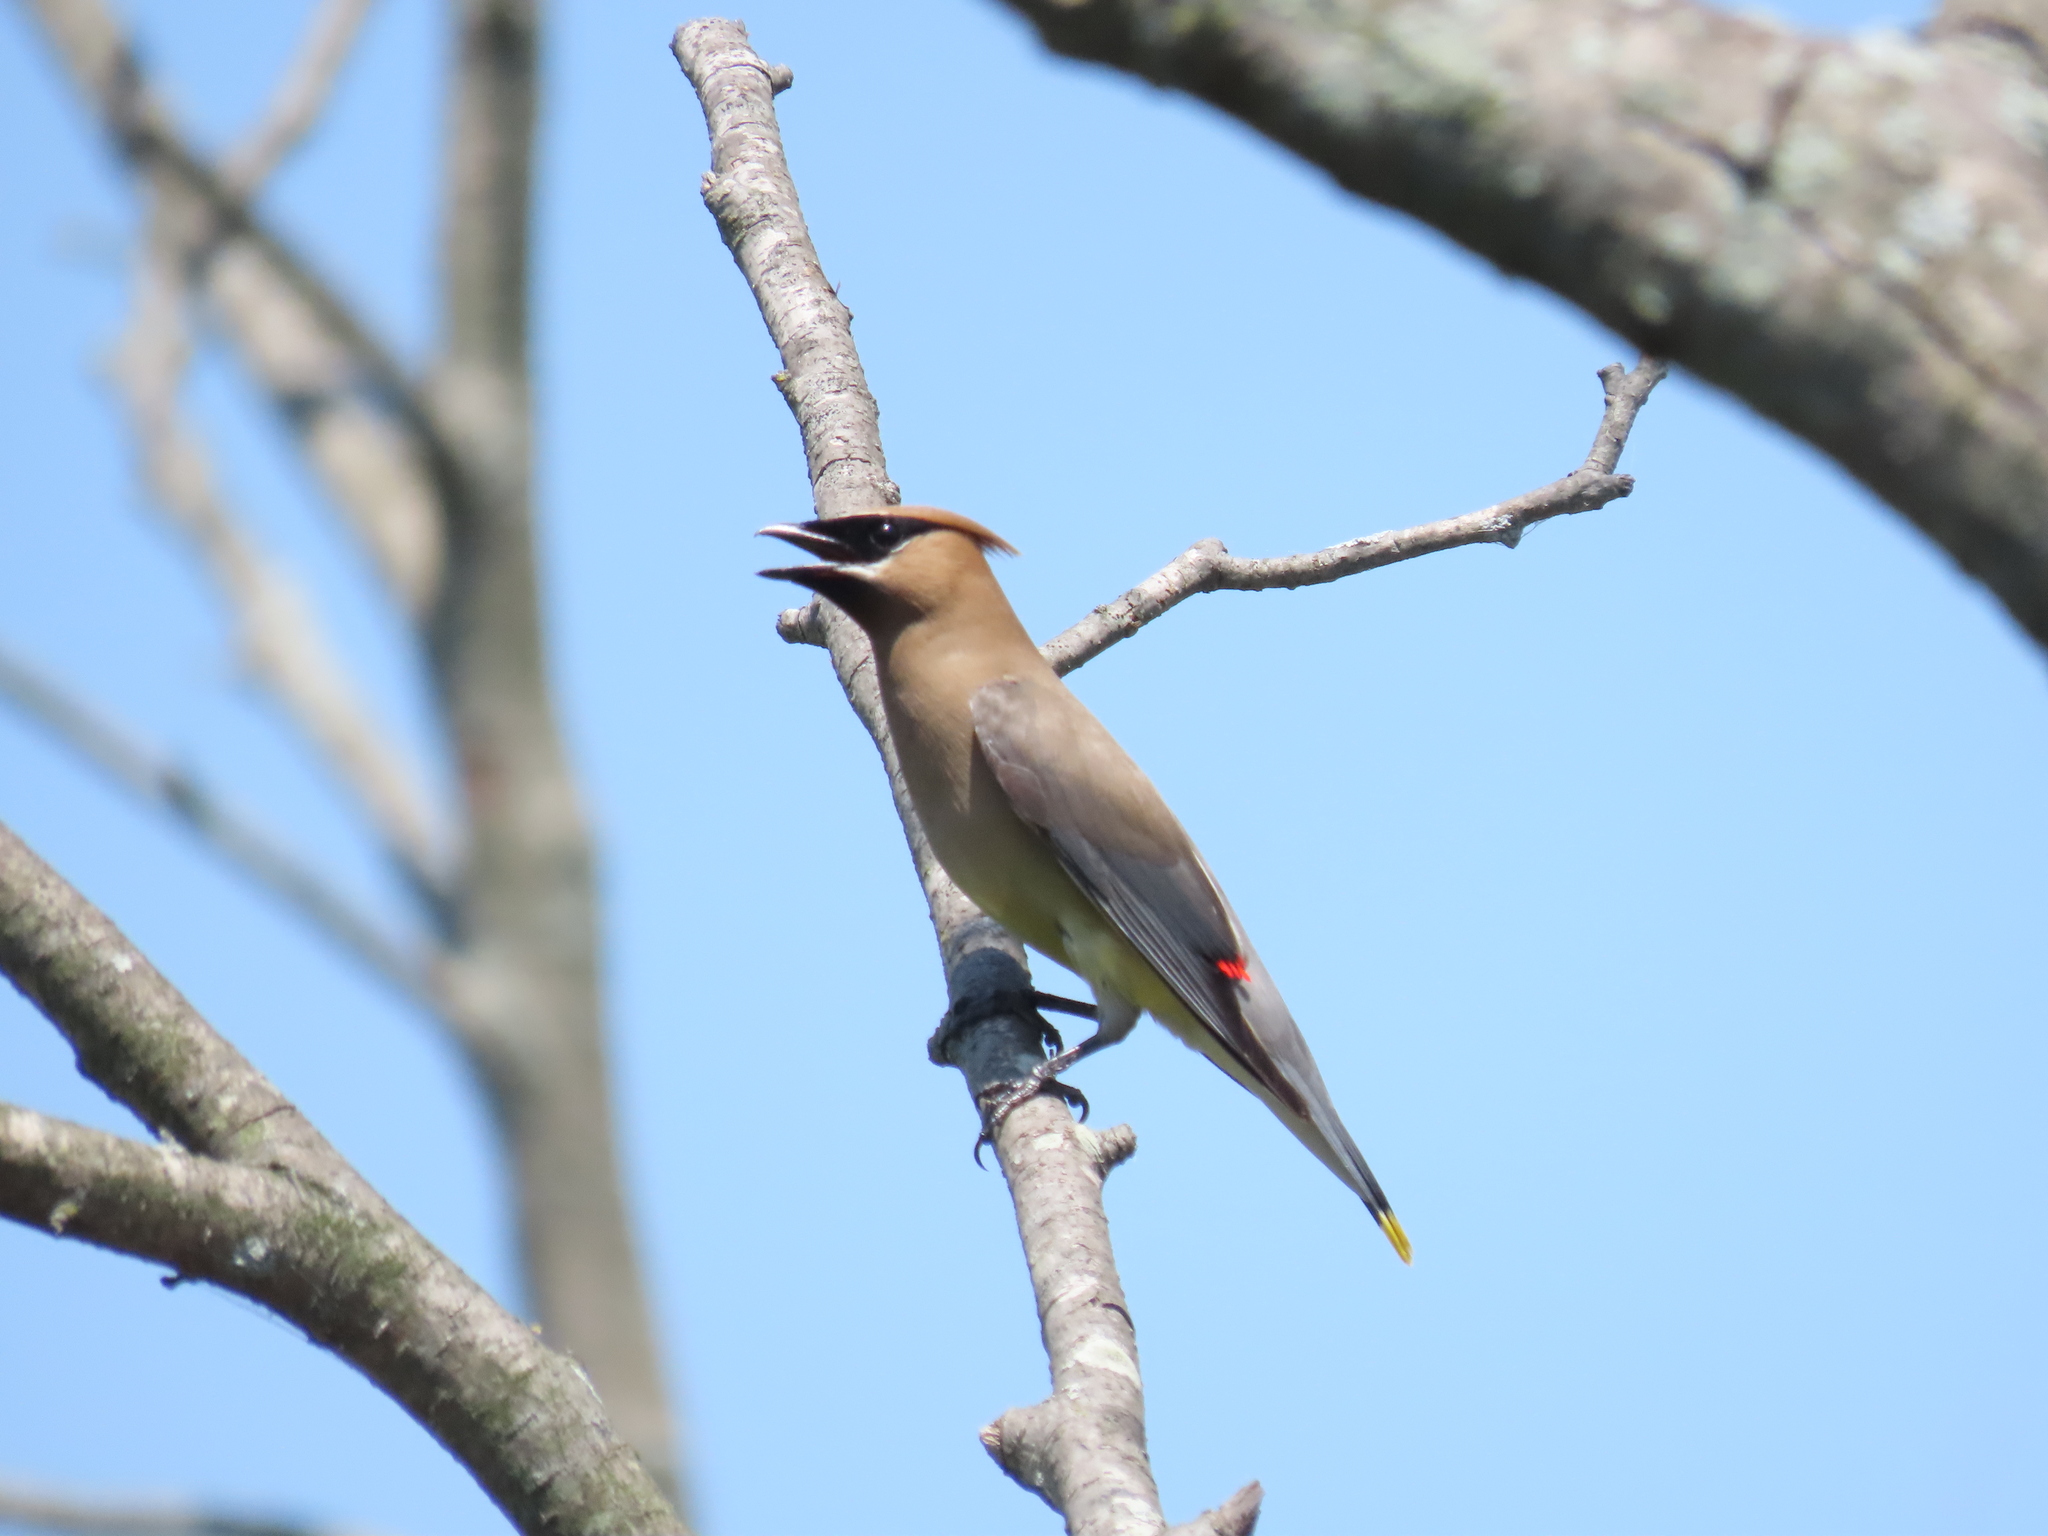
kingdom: Animalia
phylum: Chordata
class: Aves
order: Passeriformes
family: Bombycillidae
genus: Bombycilla
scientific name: Bombycilla cedrorum
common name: Cedar waxwing
